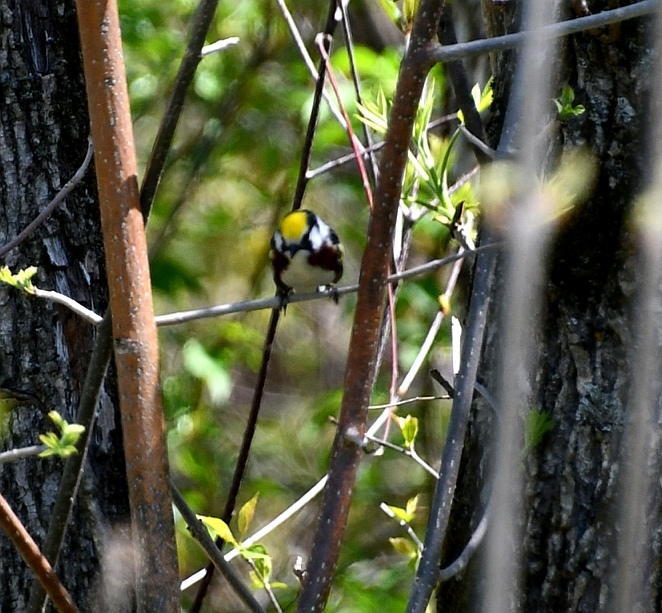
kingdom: Animalia
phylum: Chordata
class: Aves
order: Passeriformes
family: Parulidae
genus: Setophaga
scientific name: Setophaga pensylvanica
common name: Chestnut-sided warbler
